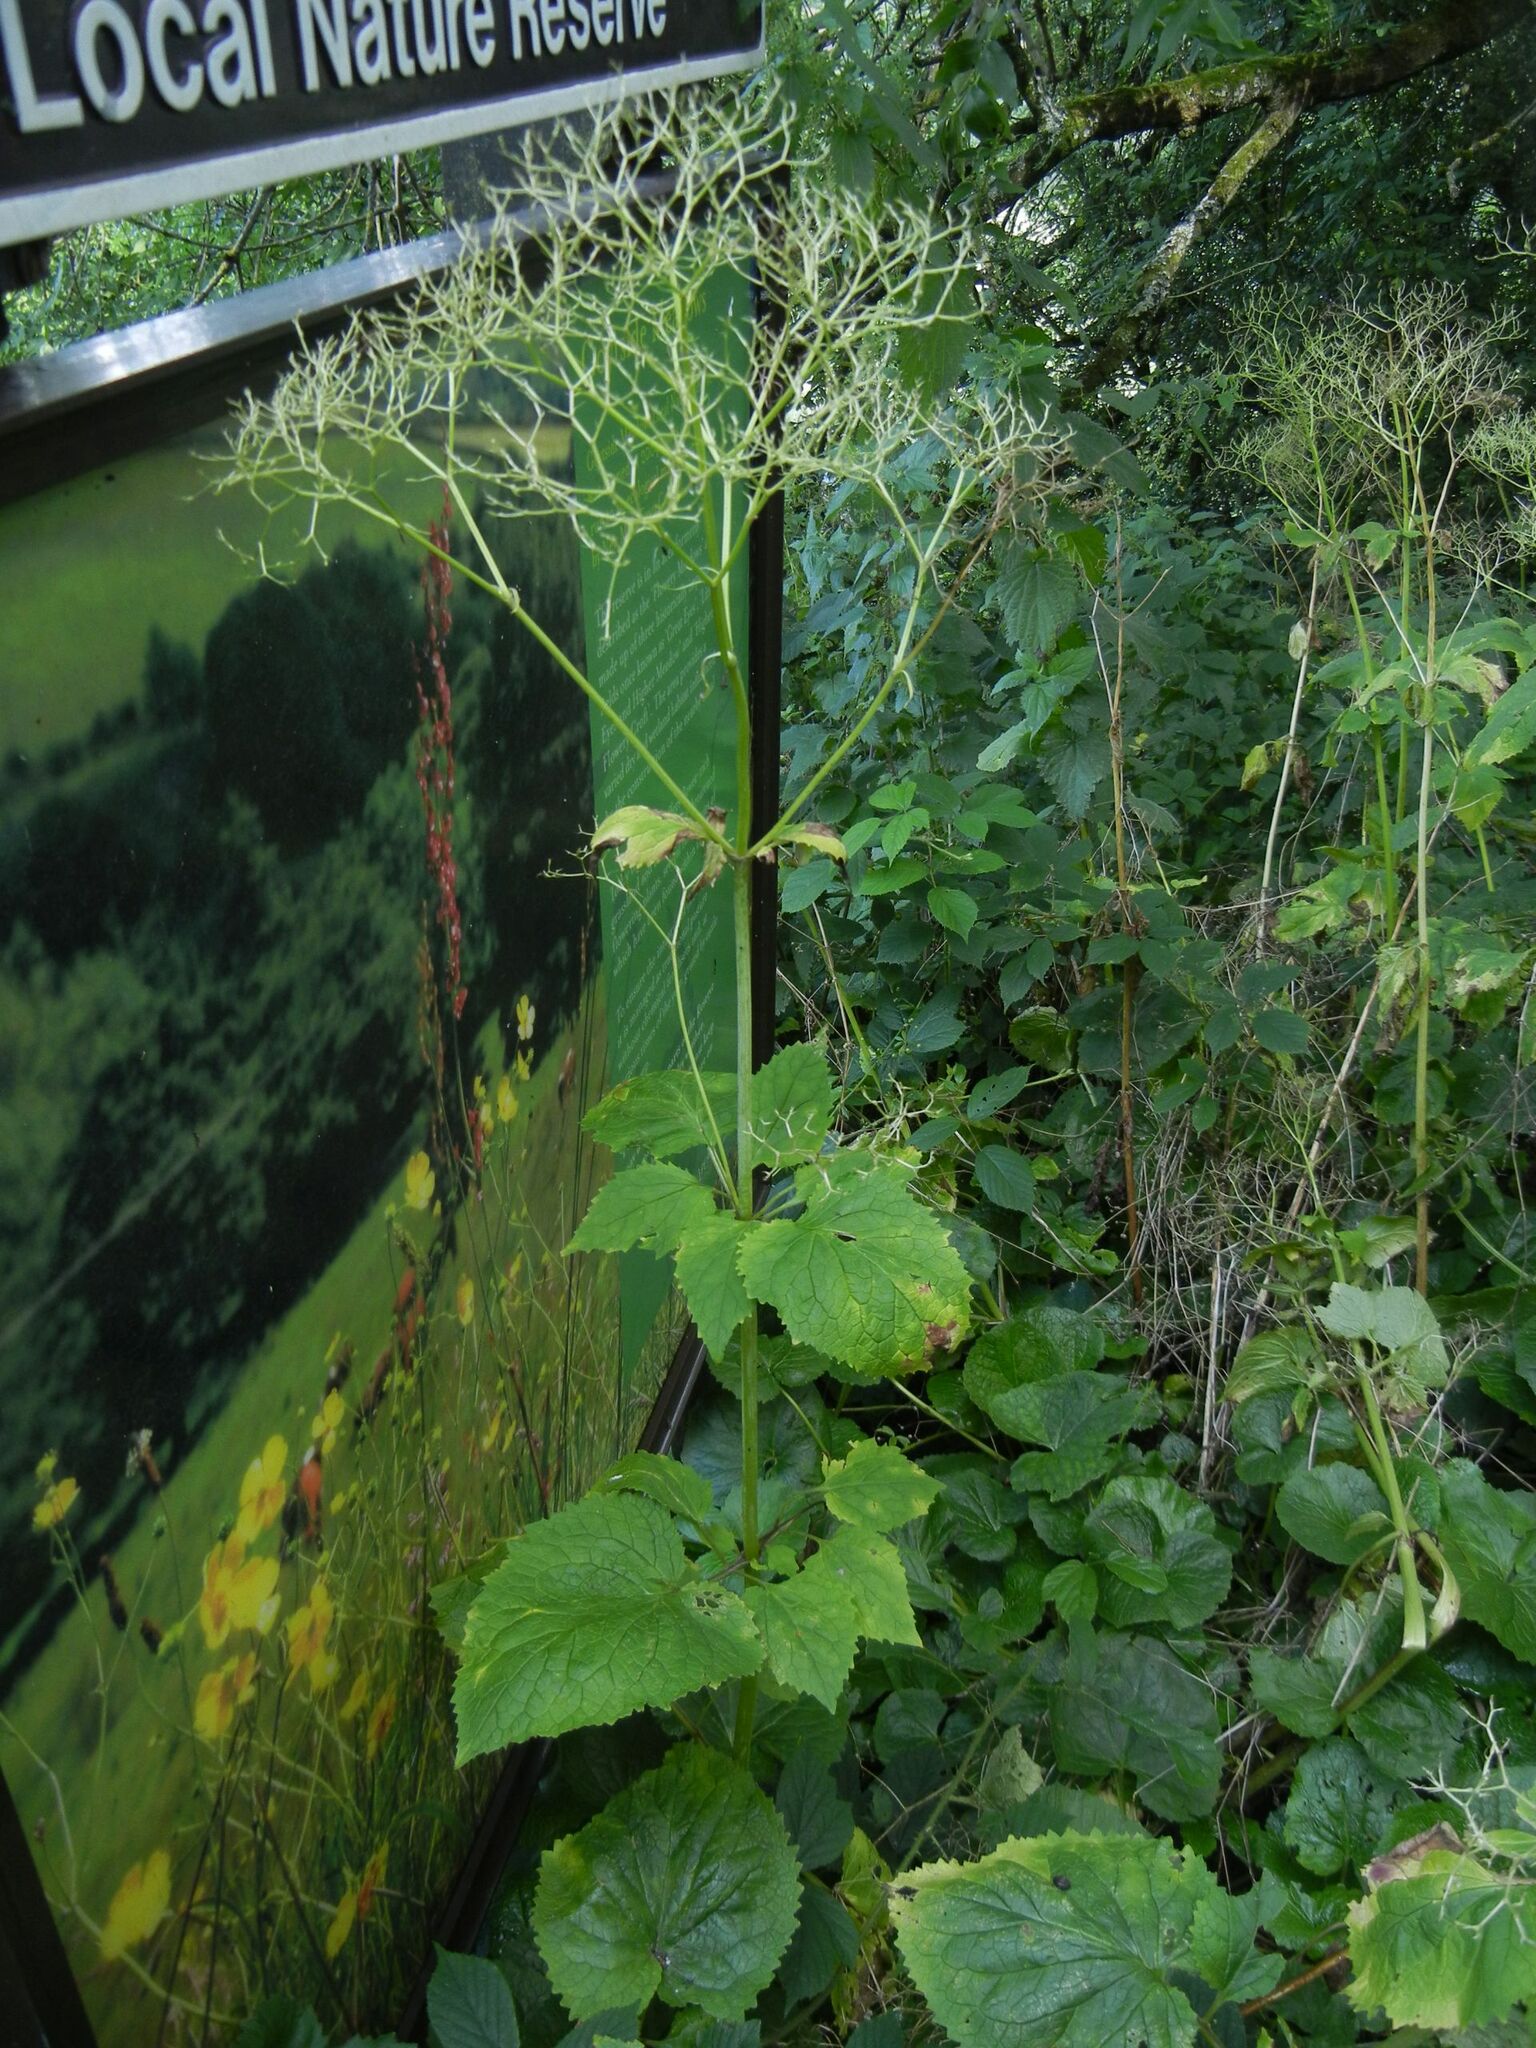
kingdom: Plantae
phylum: Tracheophyta
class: Magnoliopsida
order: Dipsacales
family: Caprifoliaceae
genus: Valeriana
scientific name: Valeriana pyrenaica
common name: Pyrenean valerian
